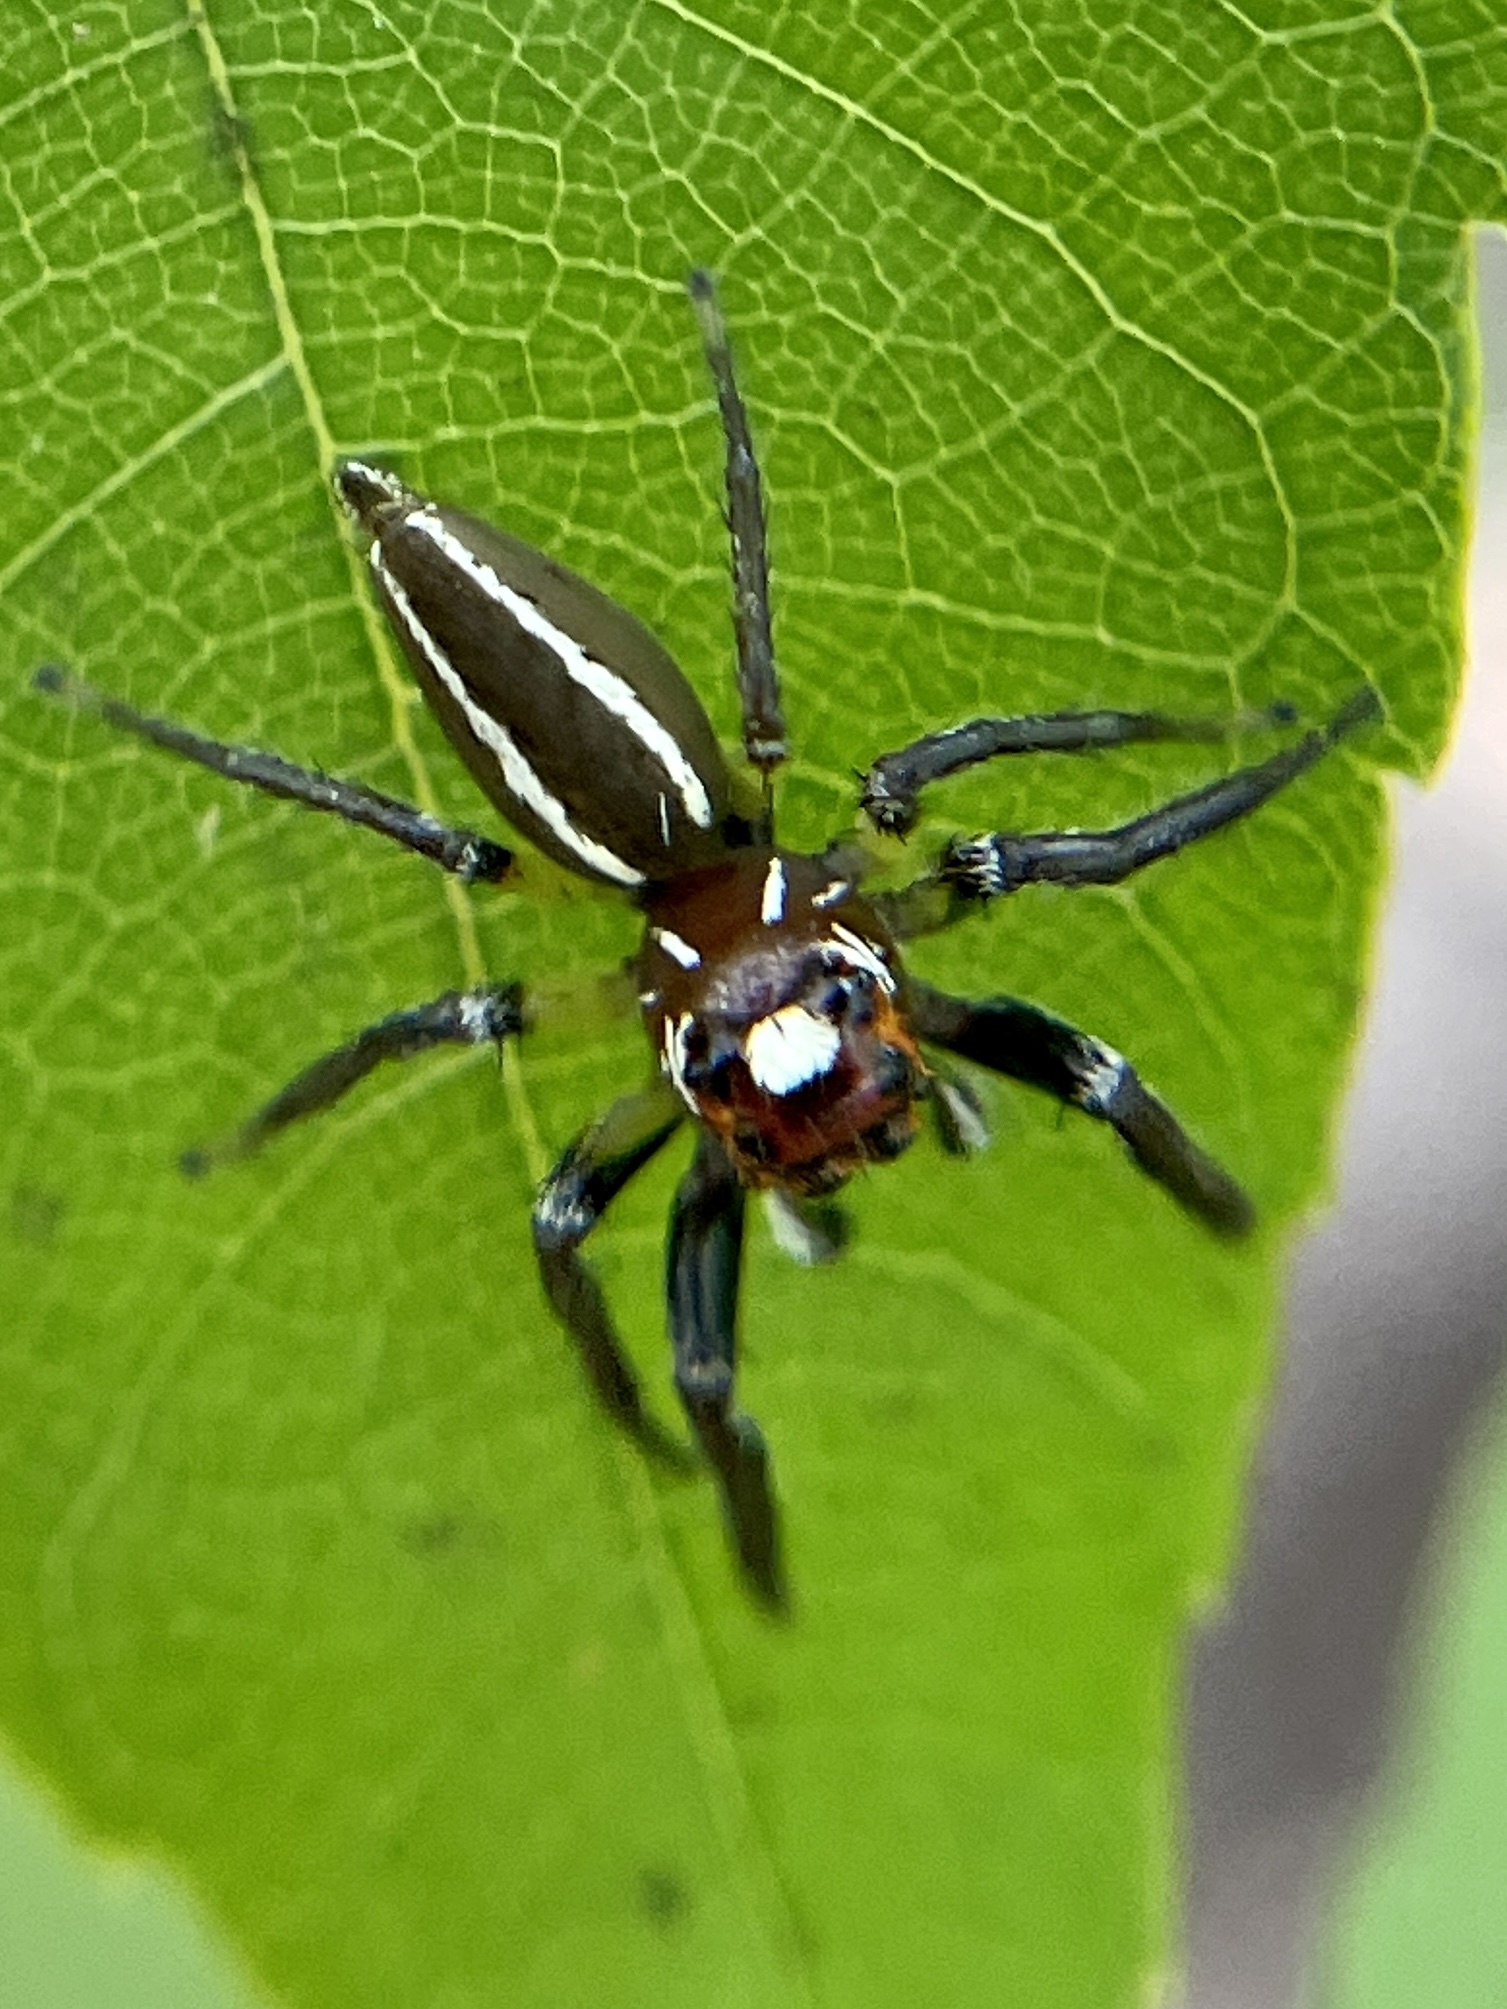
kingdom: Animalia
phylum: Arthropoda
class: Arachnida
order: Araneae
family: Salticidae
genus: Colonus
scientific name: Colonus sylvanus
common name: Jumping spiders
